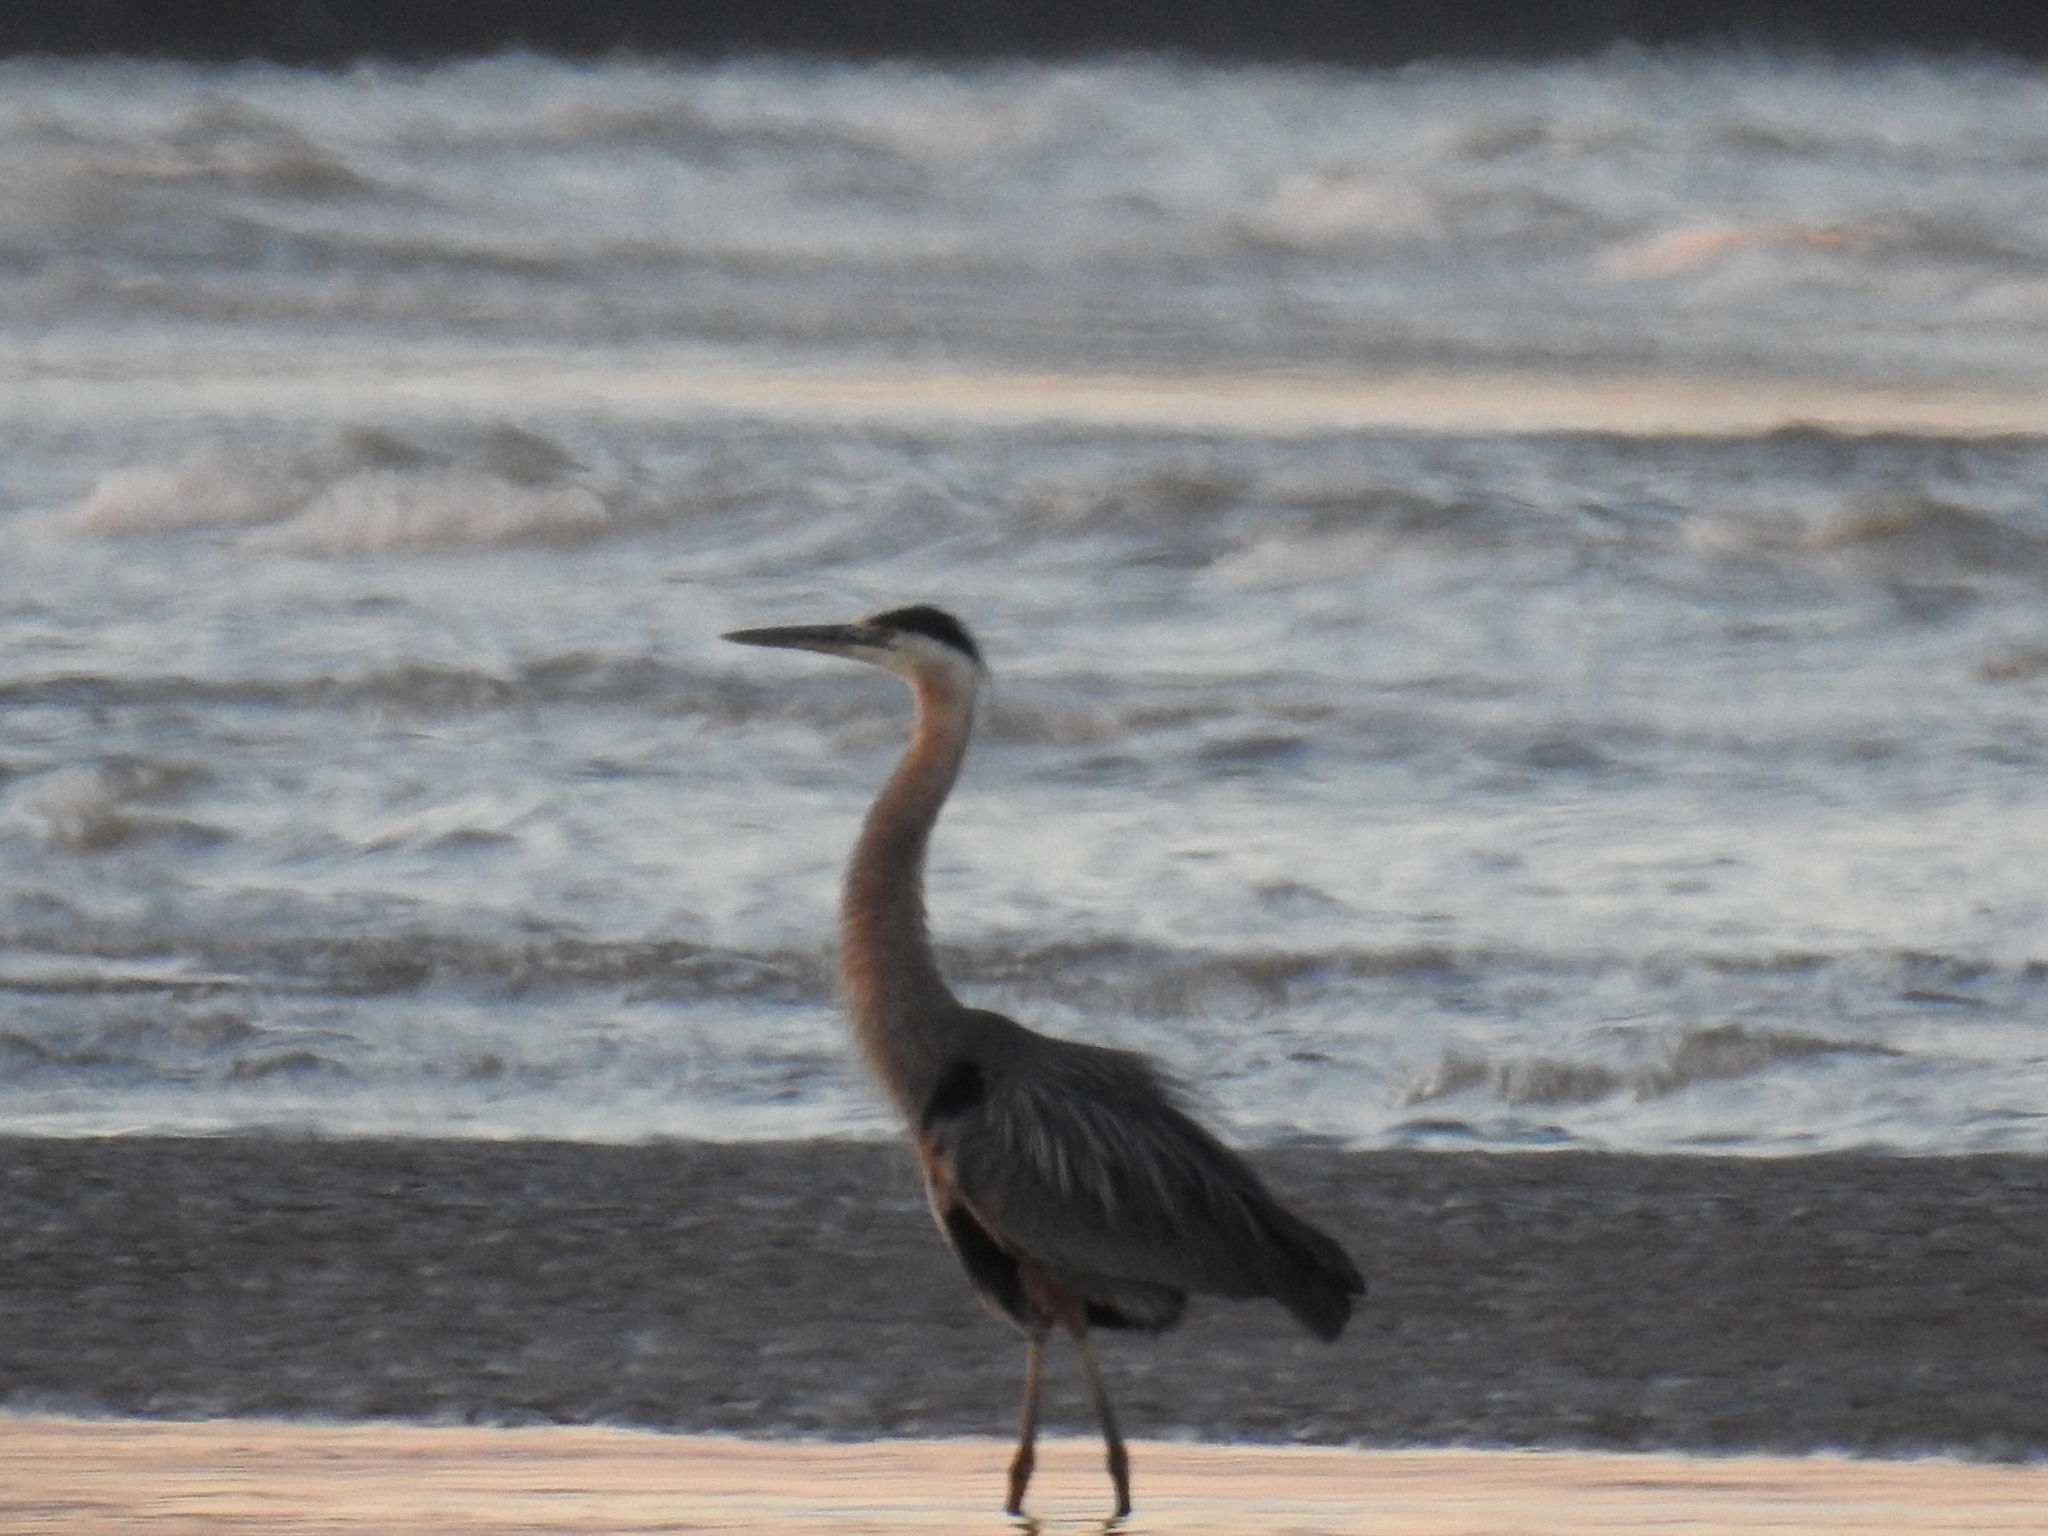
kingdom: Animalia
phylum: Chordata
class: Aves
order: Pelecaniformes
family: Ardeidae
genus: Ardea
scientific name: Ardea herodias
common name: Great blue heron
